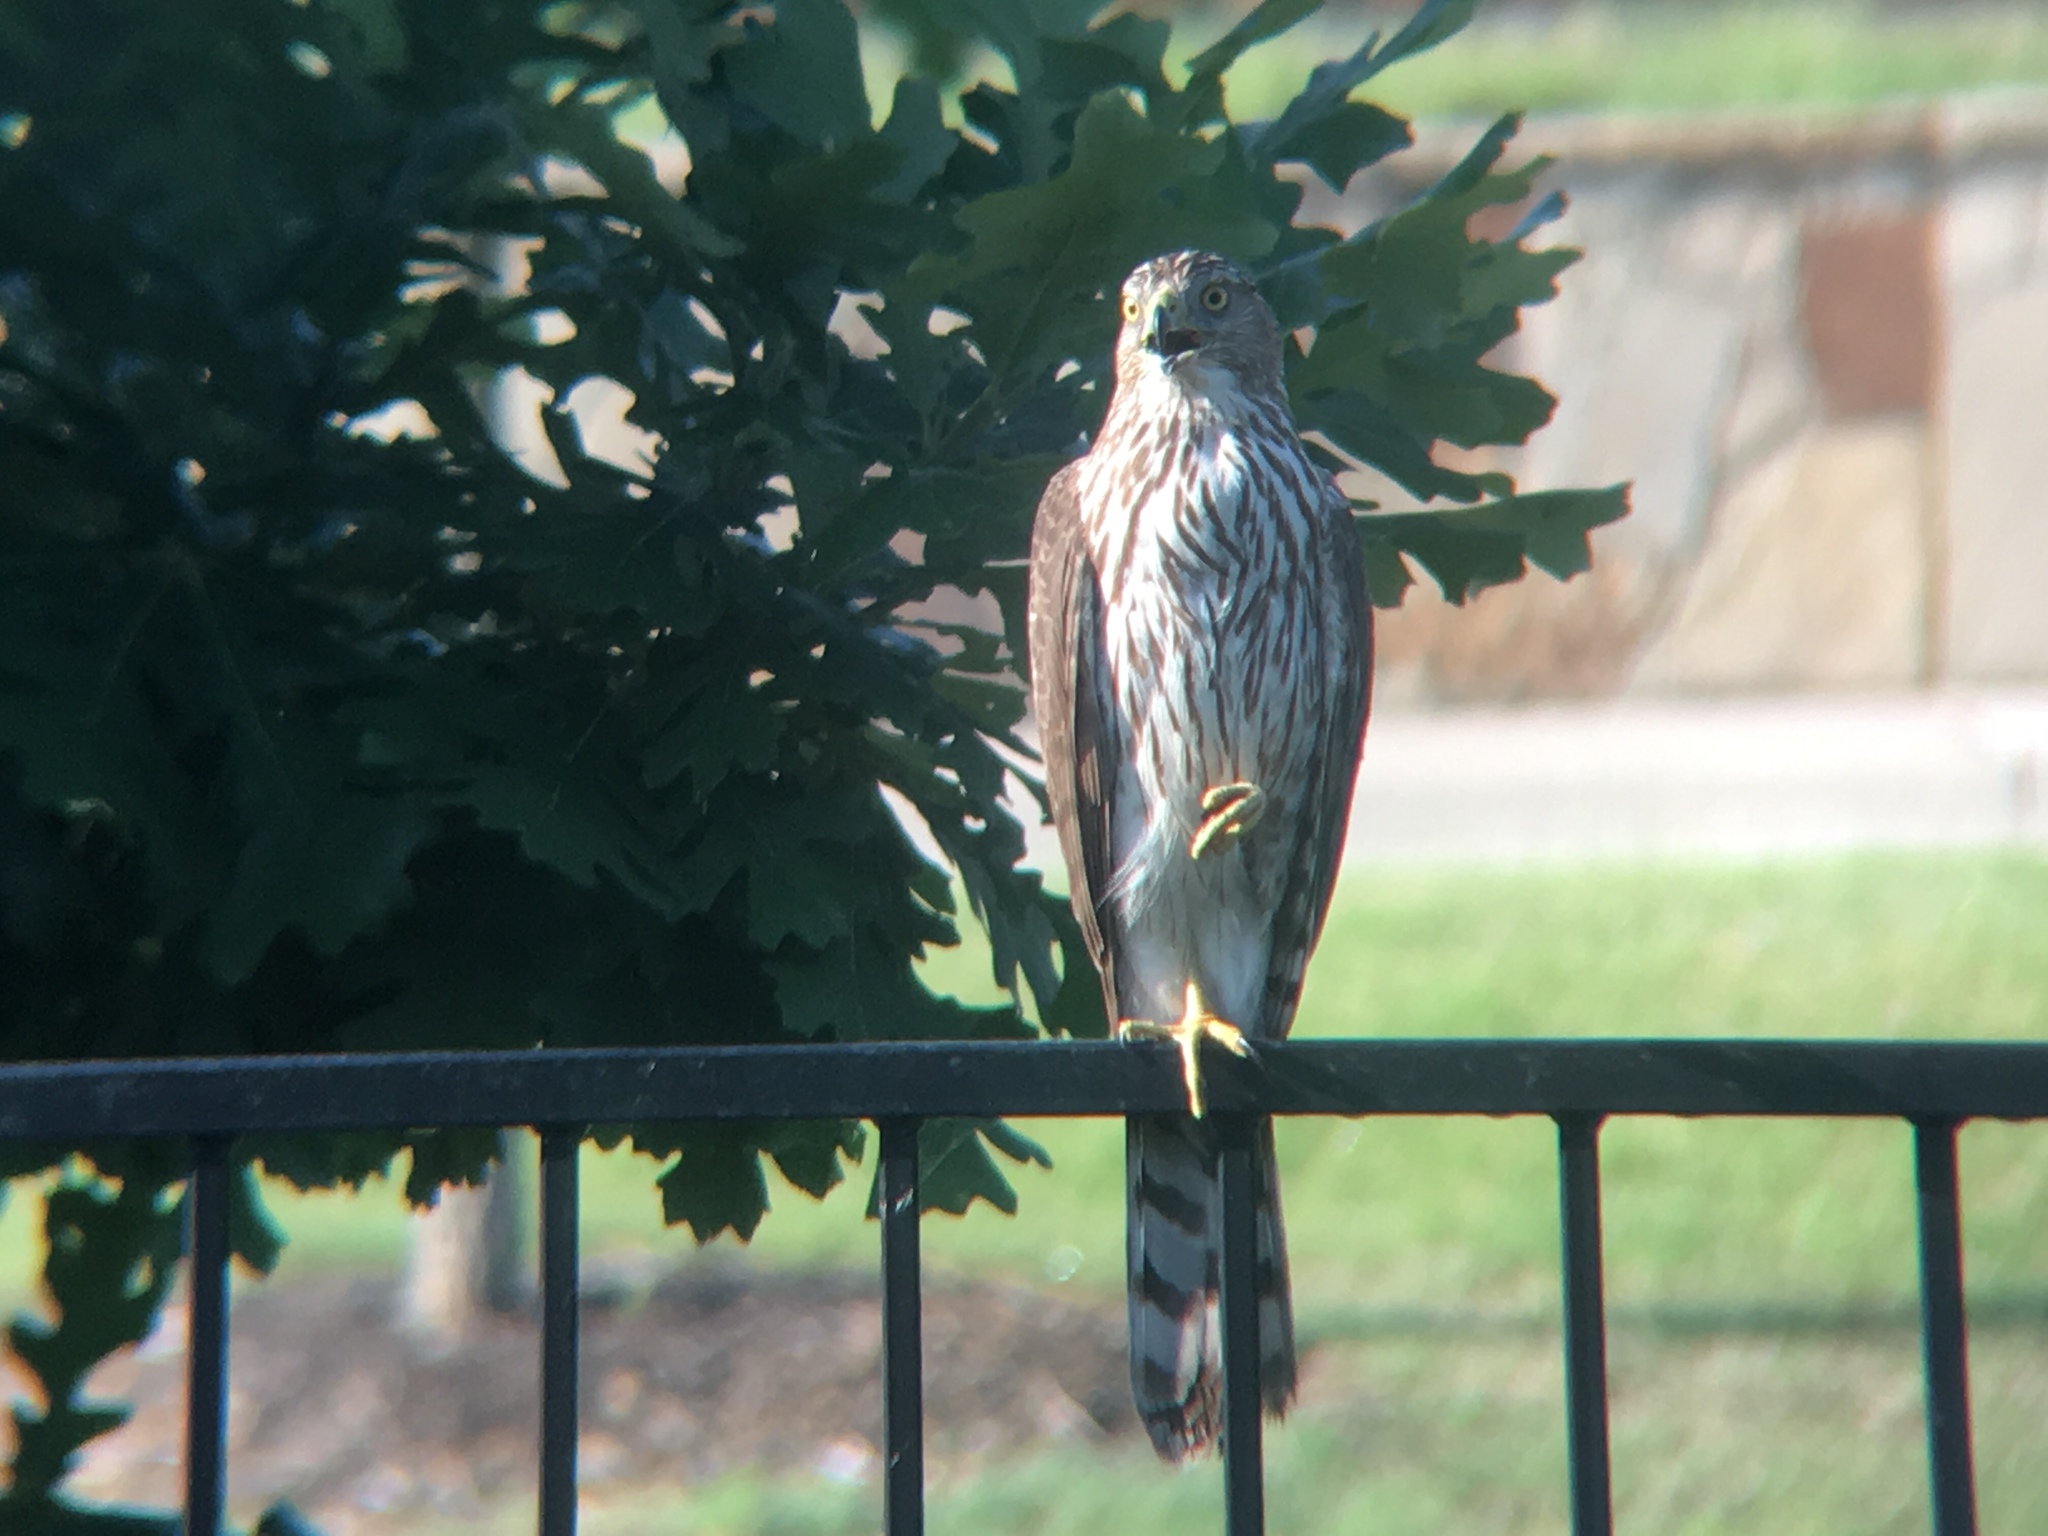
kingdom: Animalia
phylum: Chordata
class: Aves
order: Accipitriformes
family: Accipitridae
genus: Accipiter
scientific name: Accipiter cooperii
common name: Cooper's hawk
